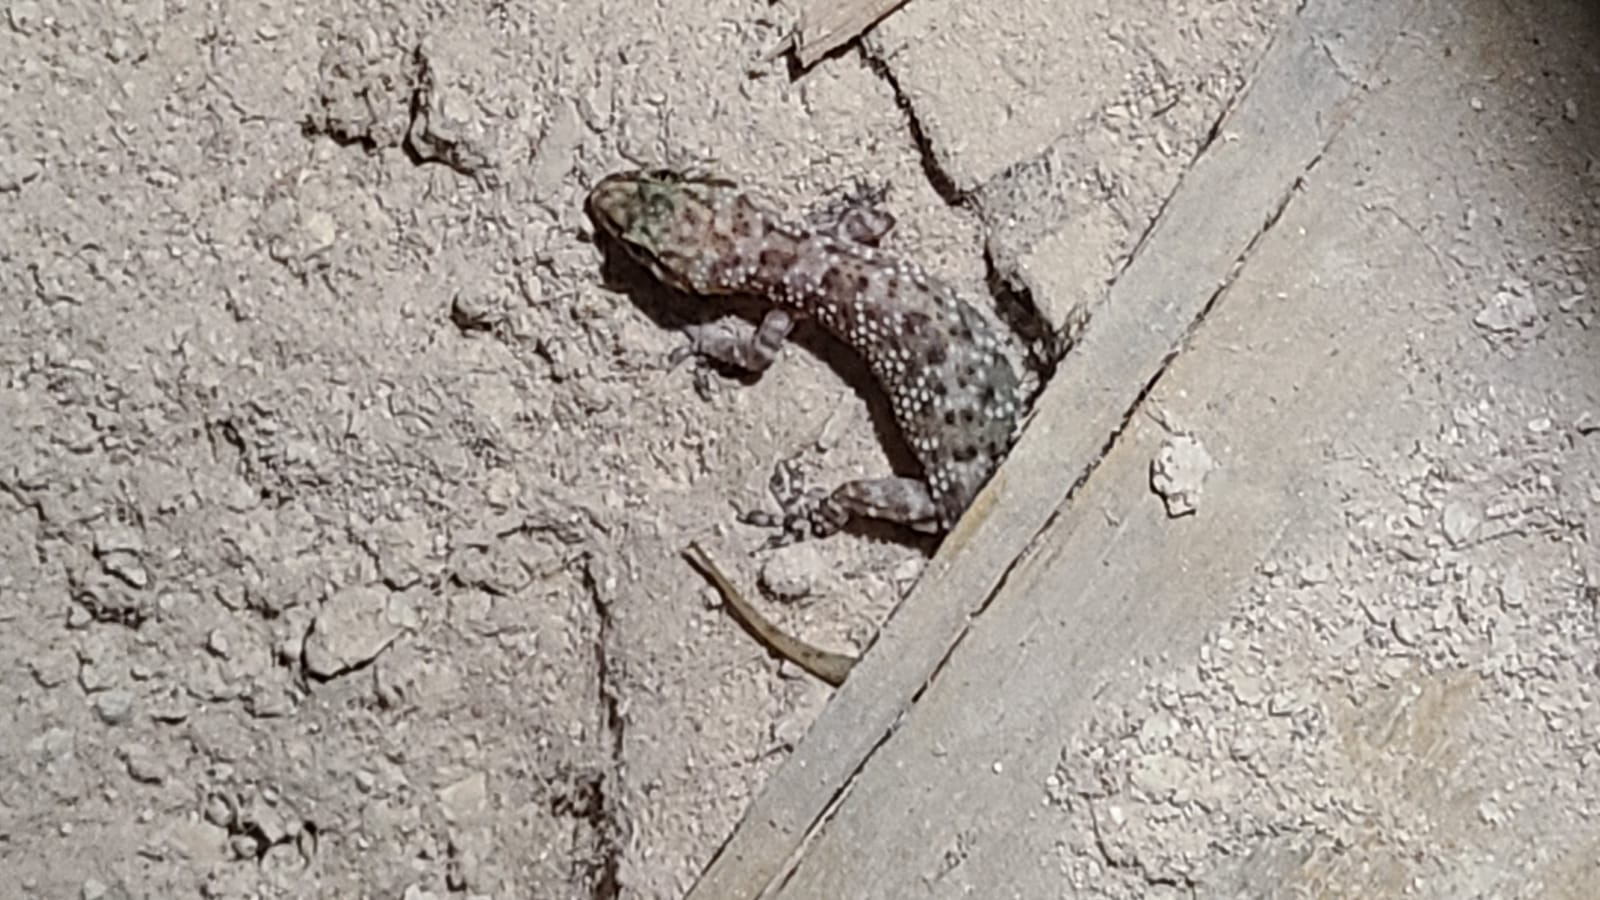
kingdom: Animalia
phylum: Chordata
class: Squamata
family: Gekkonidae
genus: Hemidactylus
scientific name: Hemidactylus turcicus
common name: Turkish gecko
